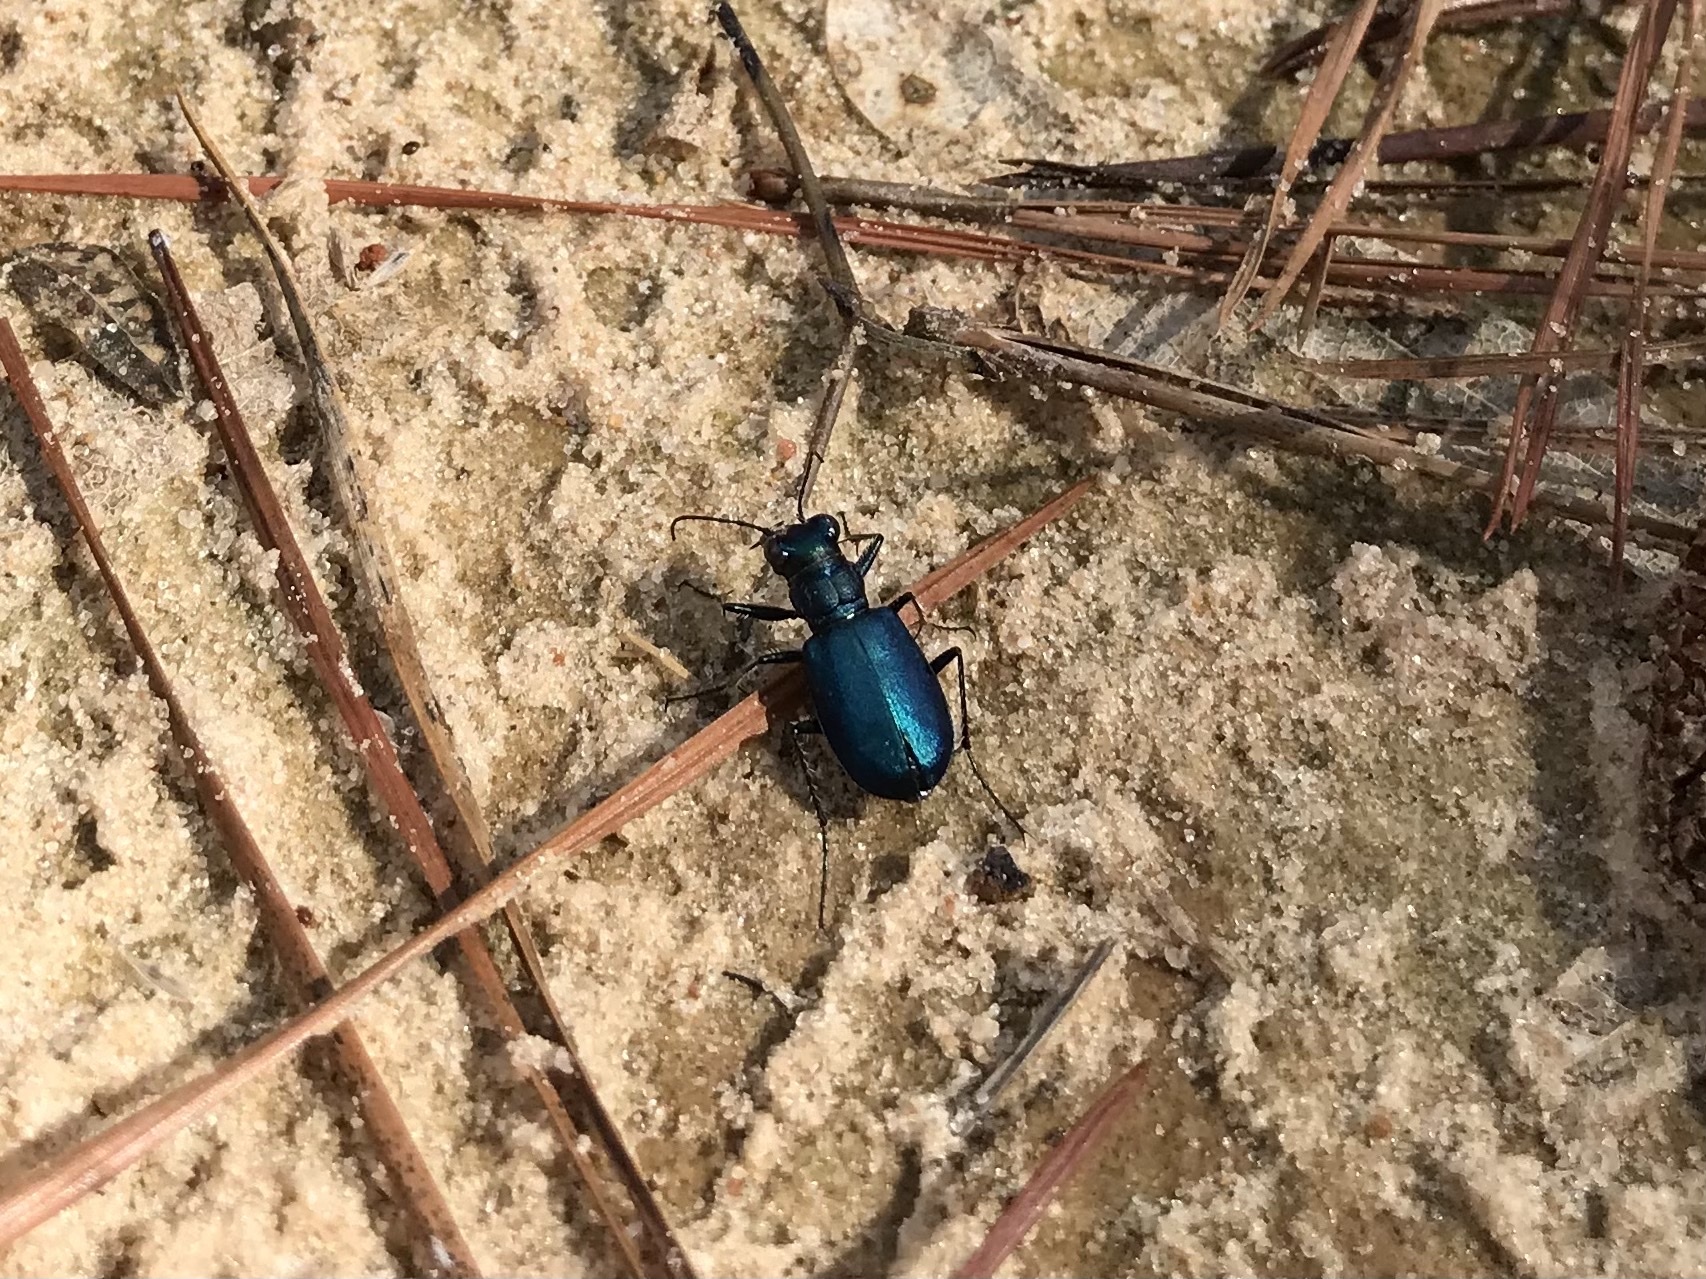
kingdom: Animalia
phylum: Arthropoda
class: Insecta
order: Coleoptera
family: Carabidae
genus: Cicindela
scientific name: Cicindela scutellaris
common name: Festive tiger beetle
